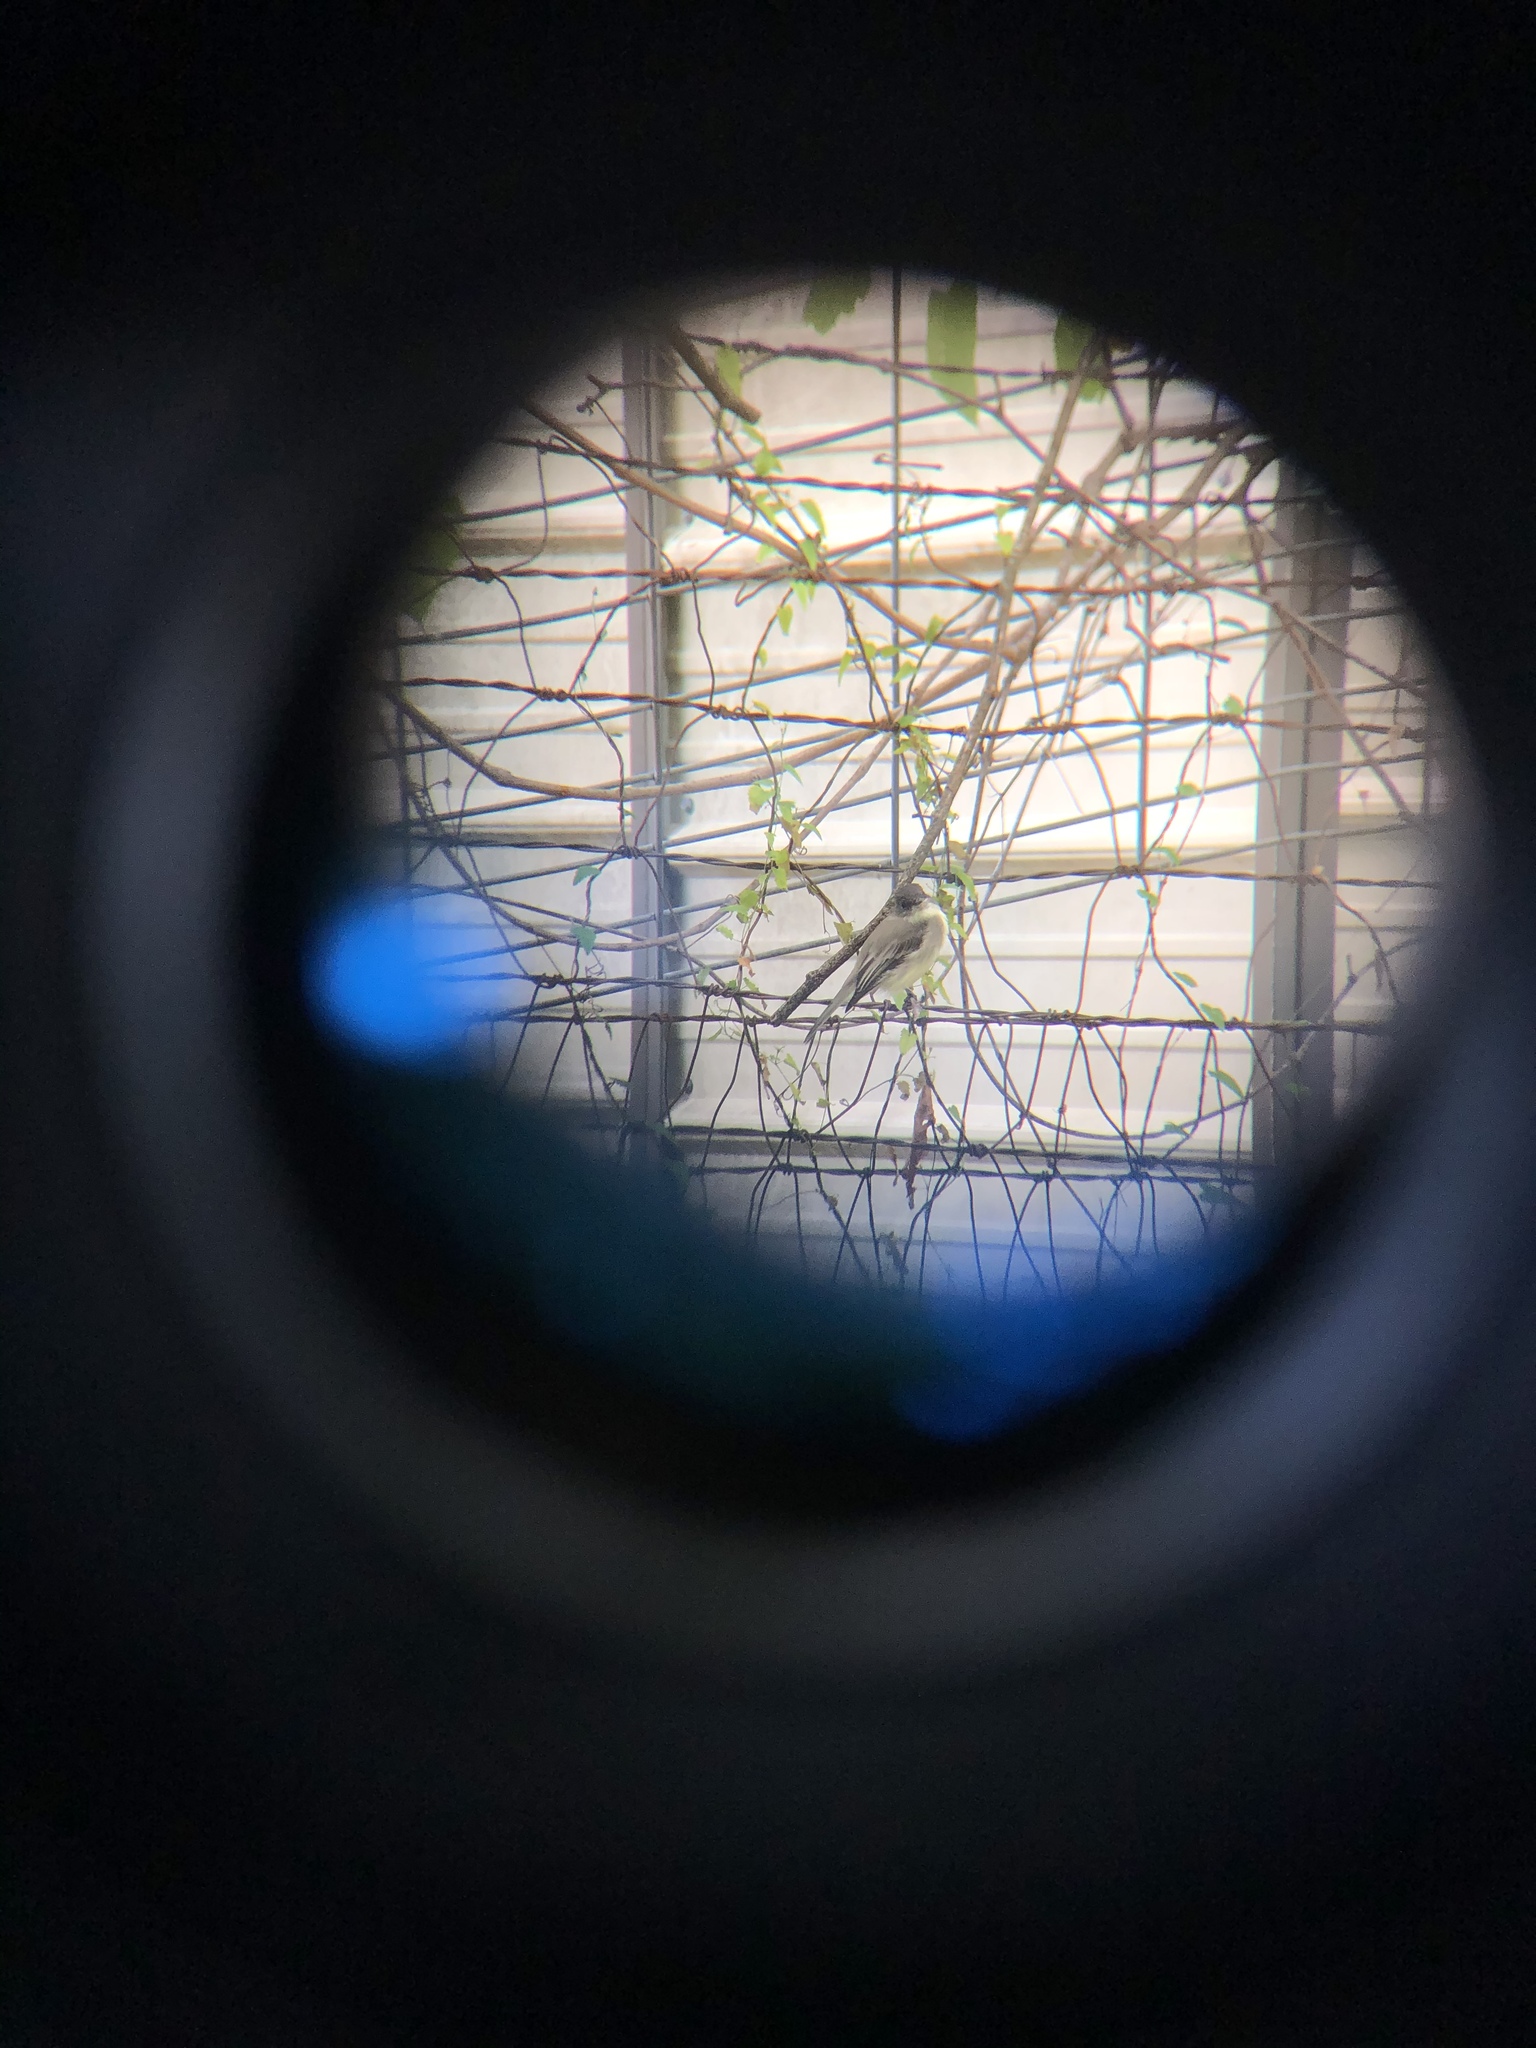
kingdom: Animalia
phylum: Chordata
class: Aves
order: Passeriformes
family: Tyrannidae
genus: Sayornis
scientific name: Sayornis phoebe
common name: Eastern phoebe
